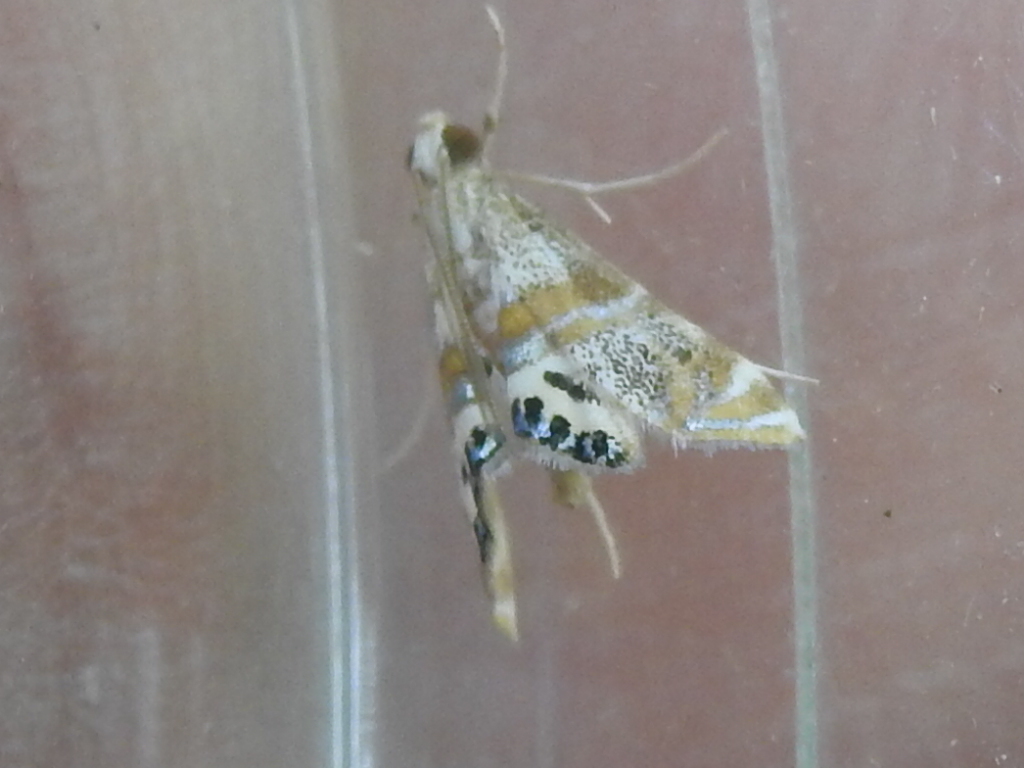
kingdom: Animalia
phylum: Arthropoda
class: Insecta
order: Lepidoptera
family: Crambidae
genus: Petrophila
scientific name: Petrophila bifascialis
